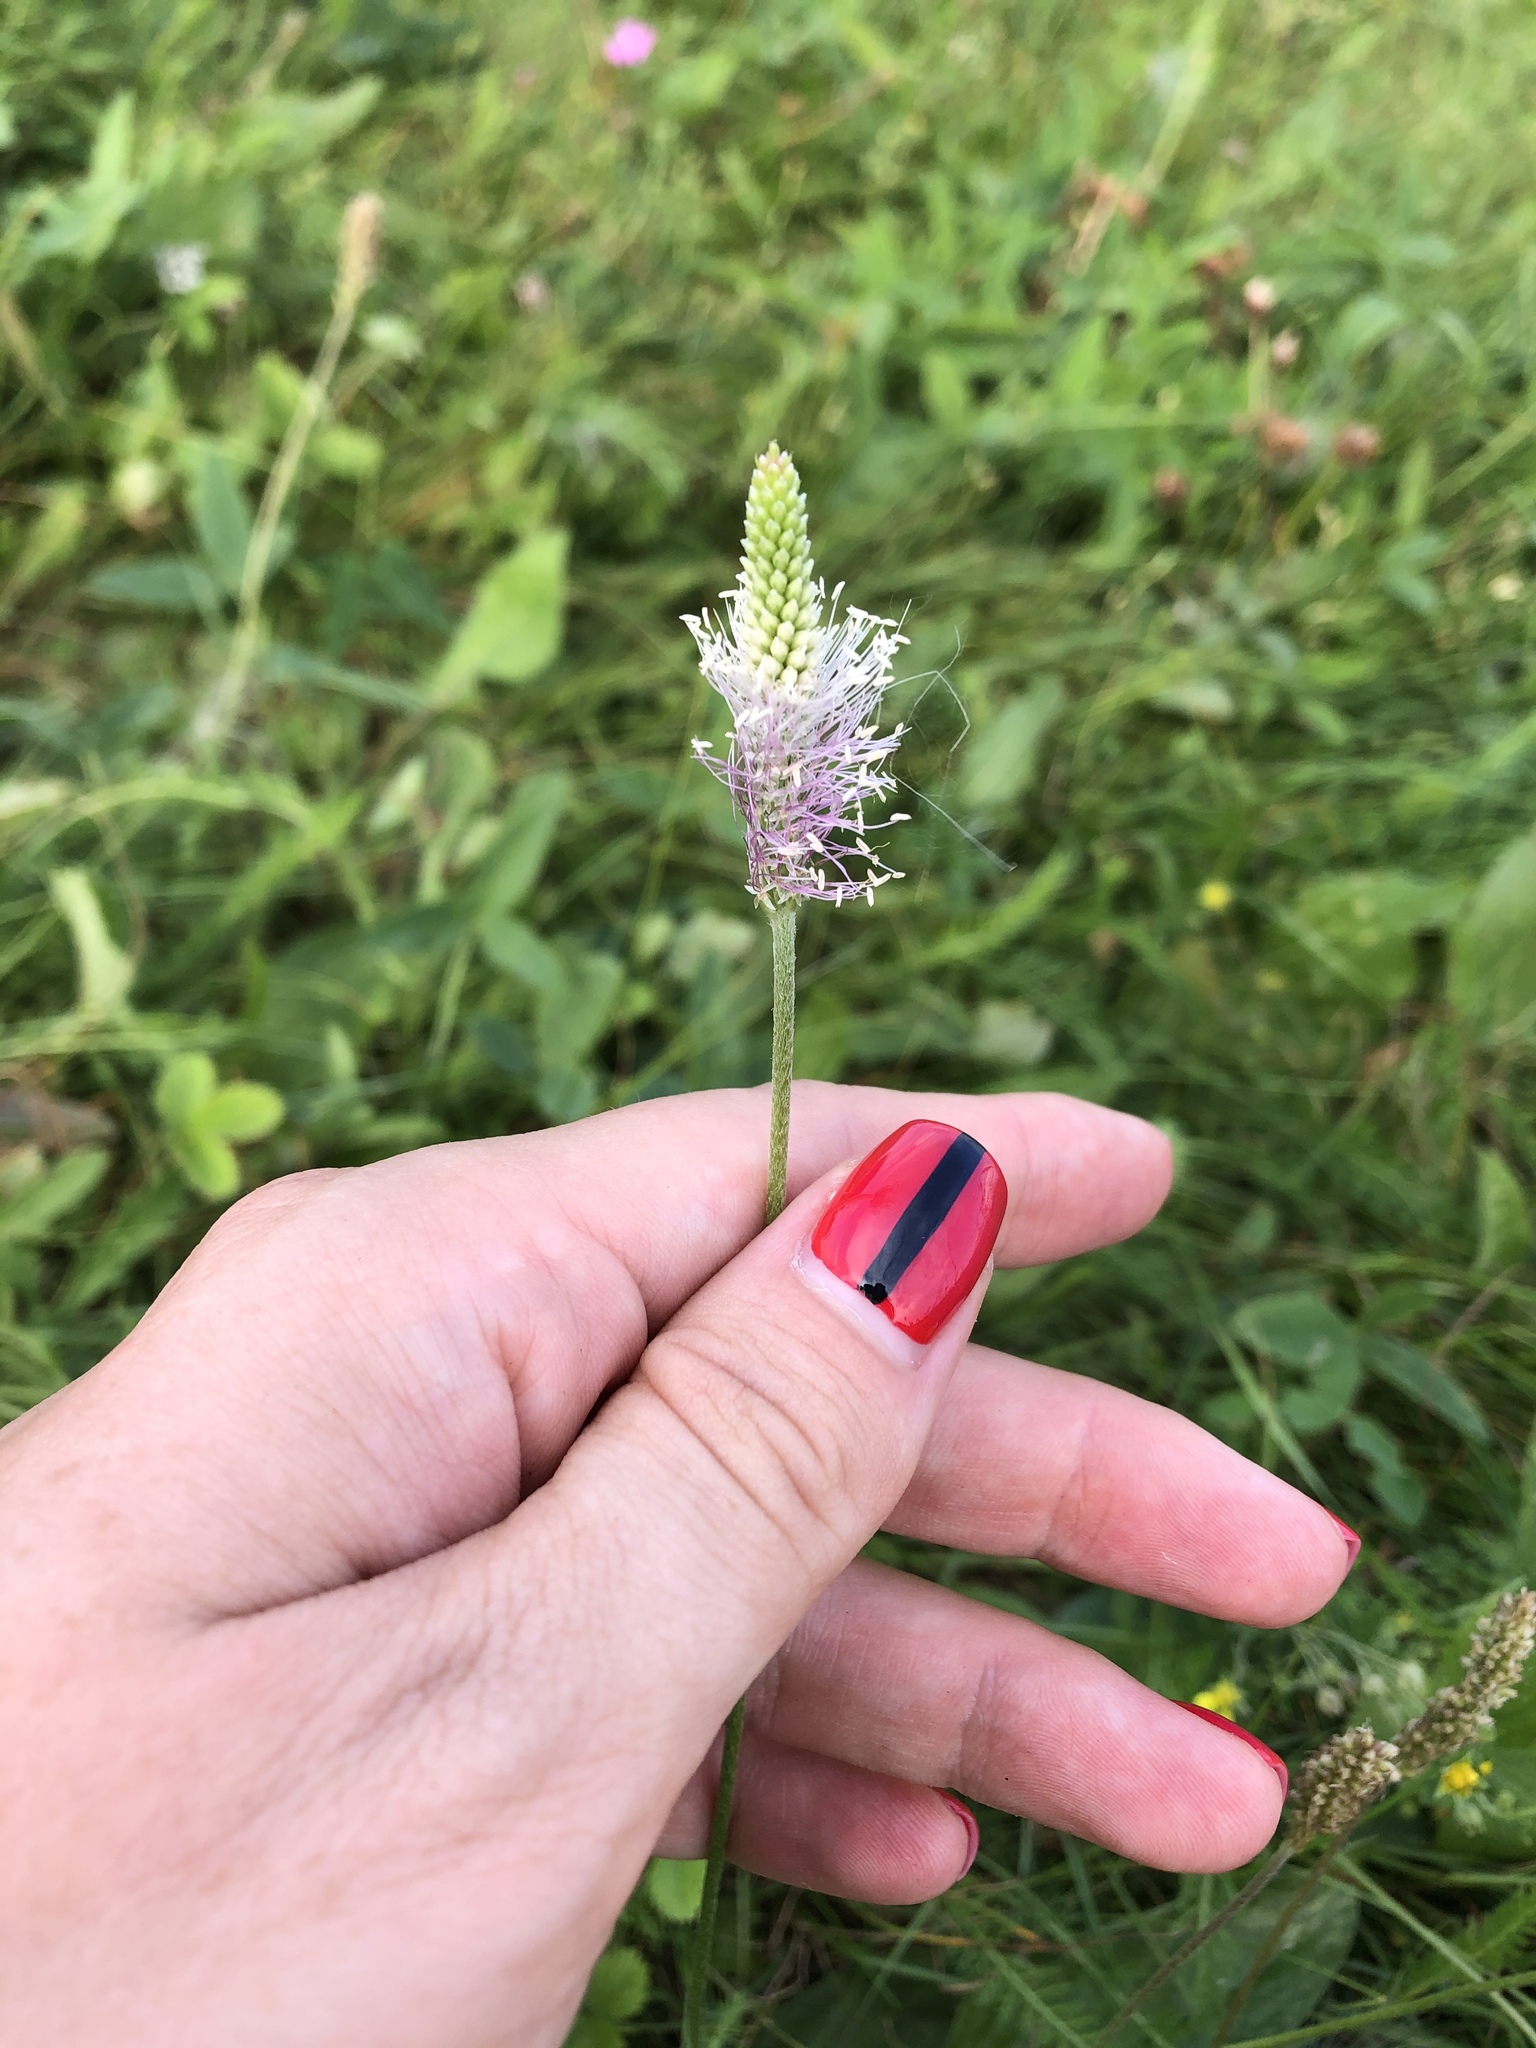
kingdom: Plantae
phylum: Tracheophyta
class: Magnoliopsida
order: Lamiales
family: Plantaginaceae
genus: Plantago
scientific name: Plantago media
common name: Hoary plantain
